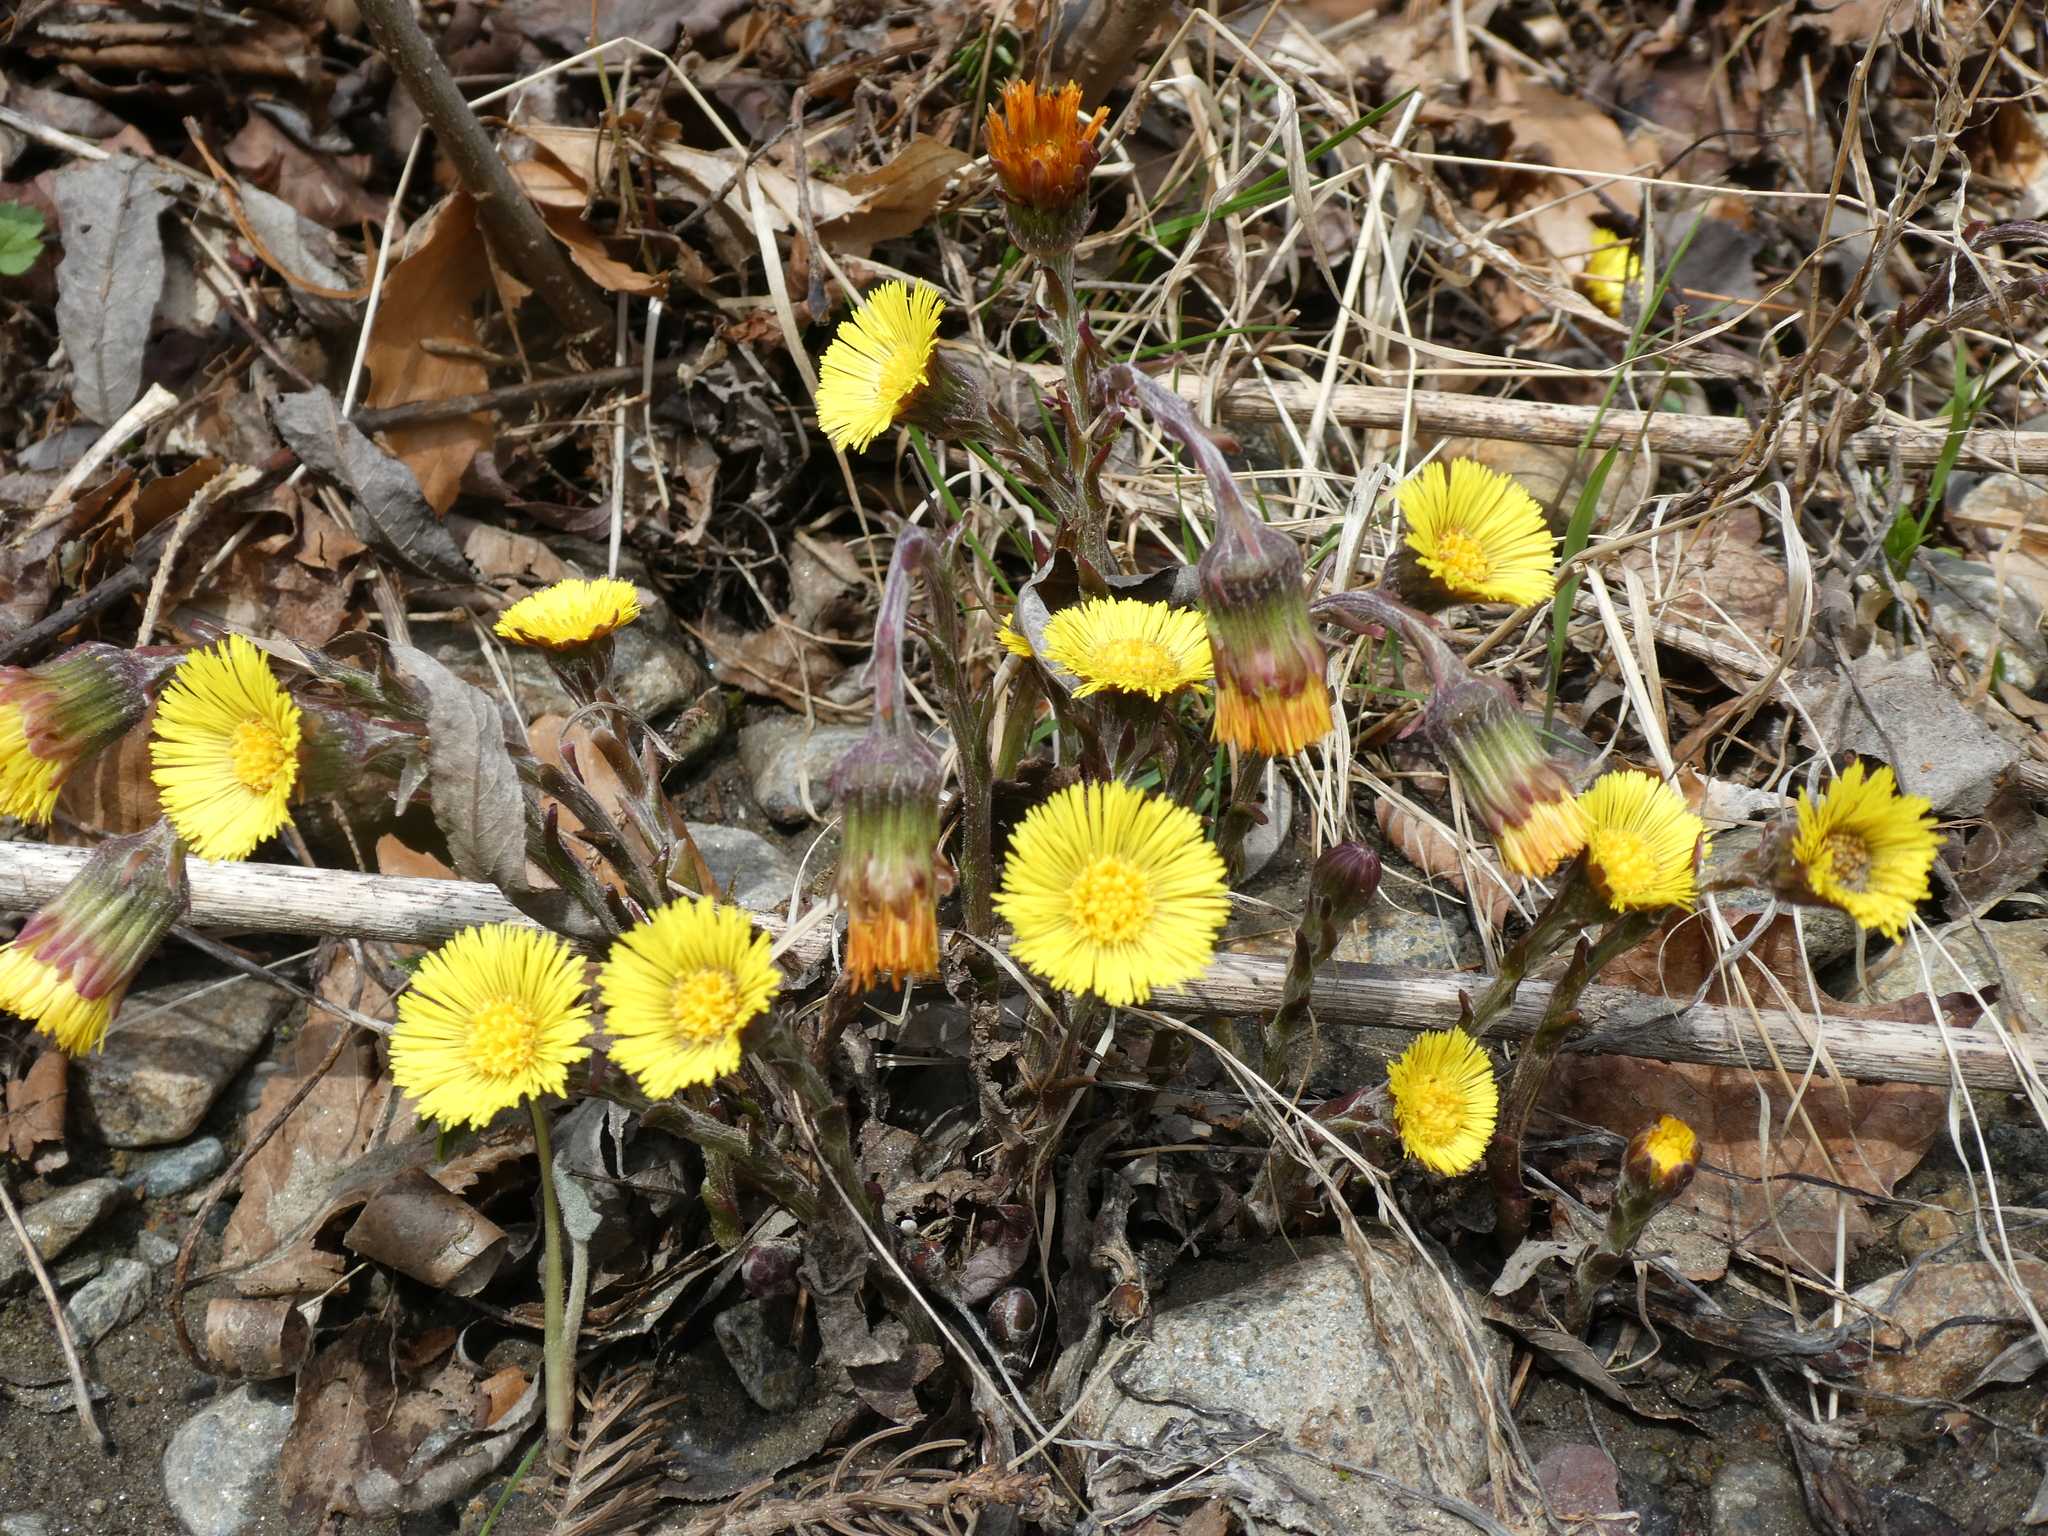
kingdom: Plantae
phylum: Tracheophyta
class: Magnoliopsida
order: Asterales
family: Asteraceae
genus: Tussilago
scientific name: Tussilago farfara
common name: Coltsfoot
